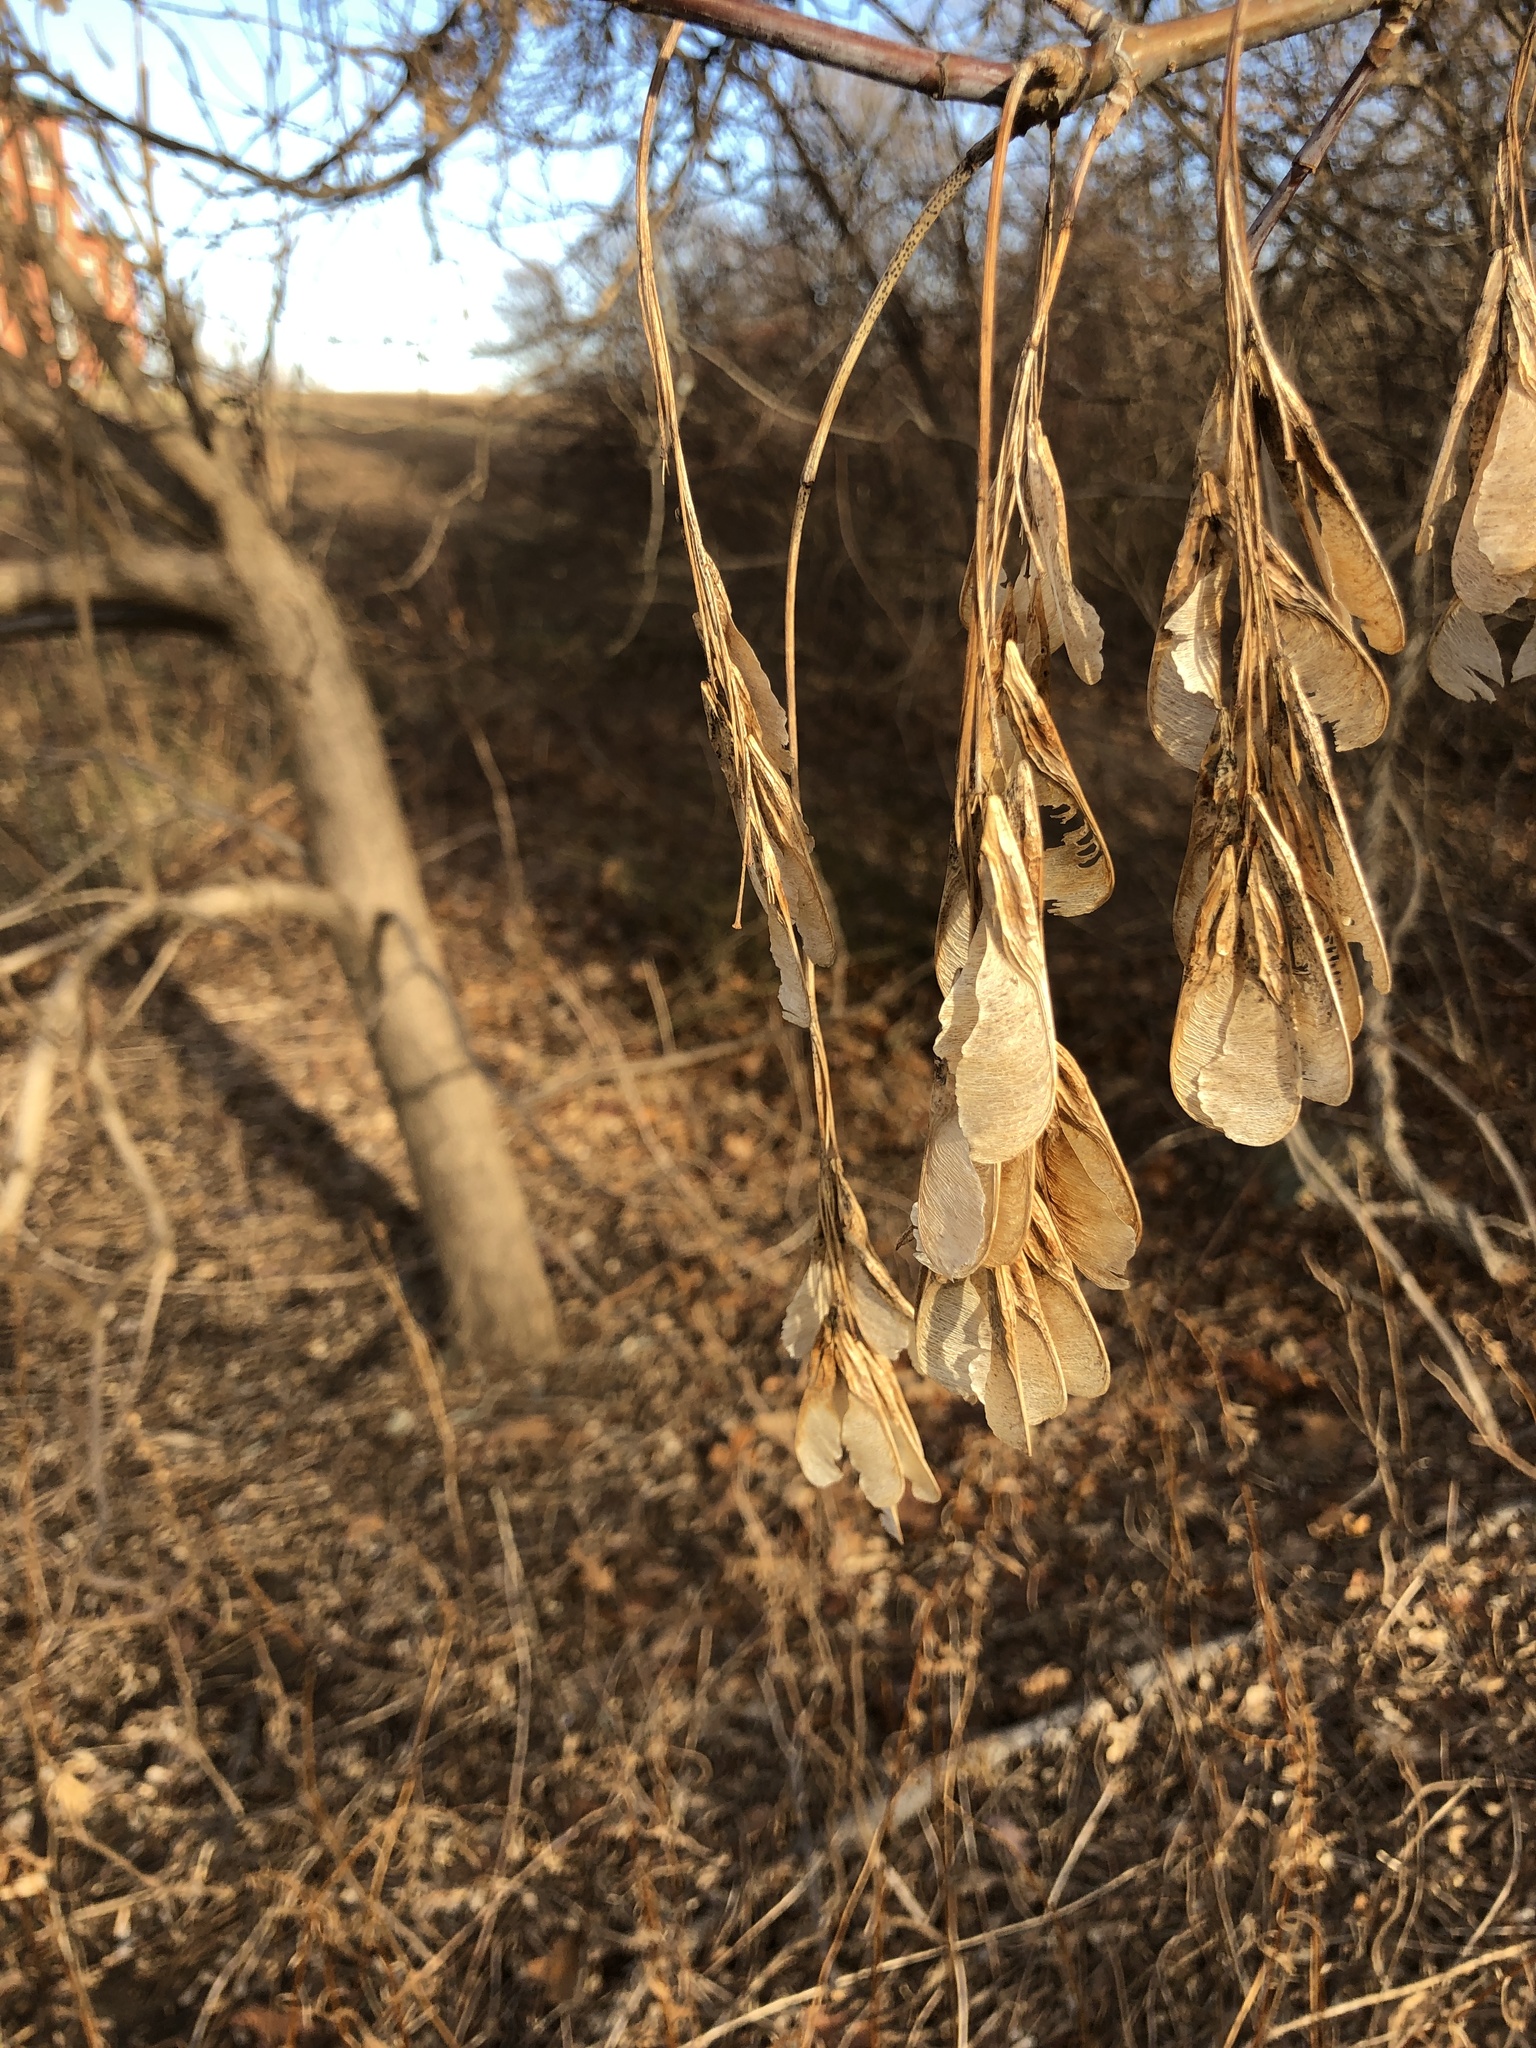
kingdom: Plantae
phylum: Tracheophyta
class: Magnoliopsida
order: Sapindales
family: Sapindaceae
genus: Acer
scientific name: Acer negundo
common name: Ashleaf maple
